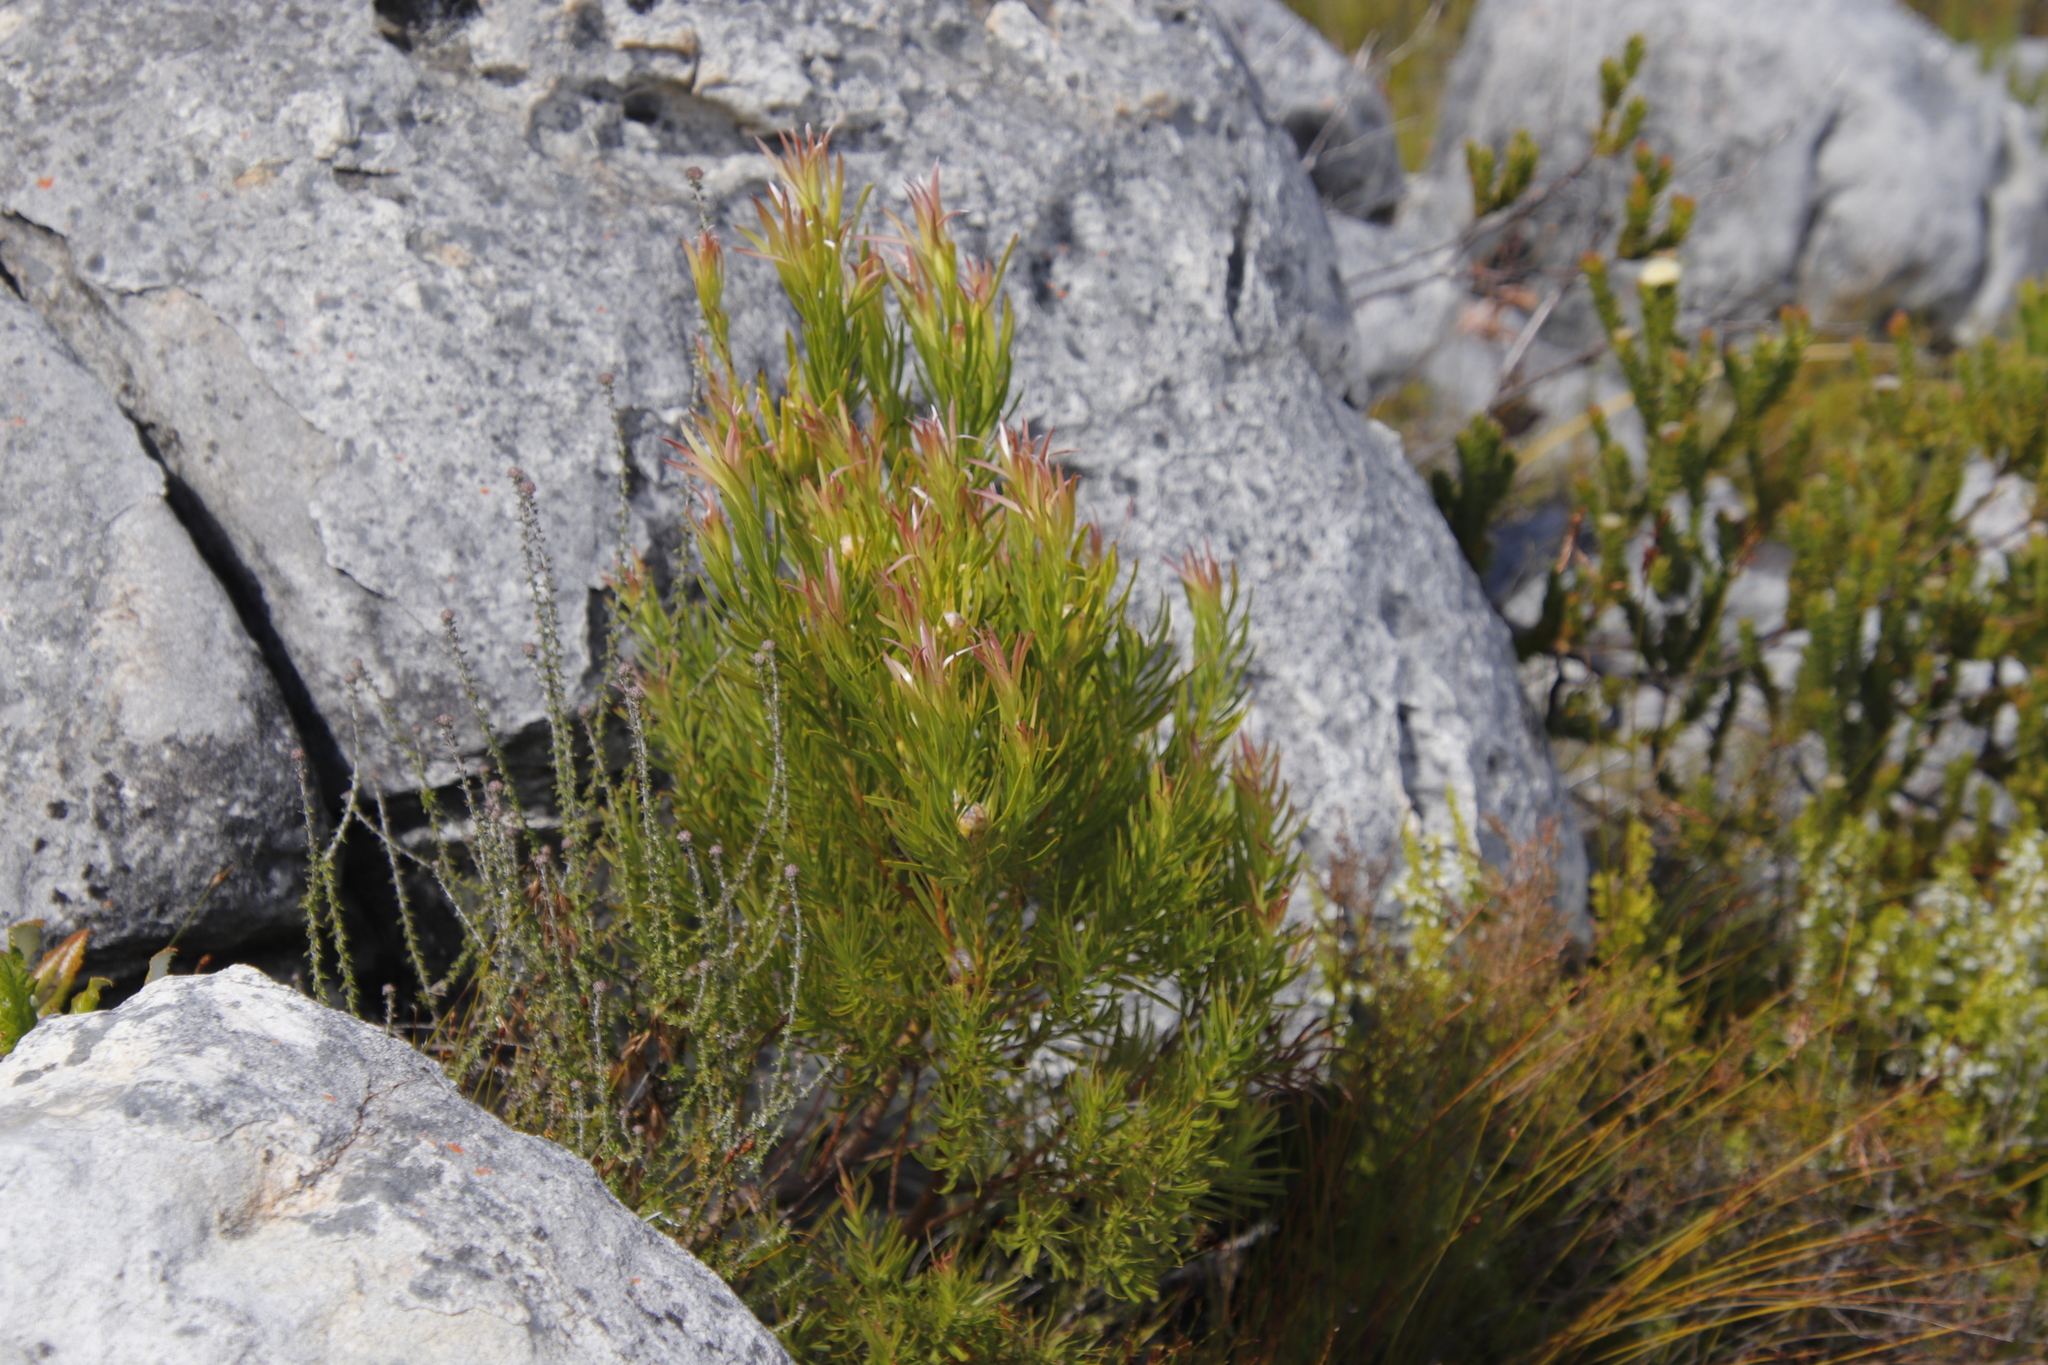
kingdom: Plantae
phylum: Tracheophyta
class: Magnoliopsida
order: Proteales
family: Proteaceae
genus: Leucadendron
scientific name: Leucadendron xanthoconus
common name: Sickle-leaf conebush
